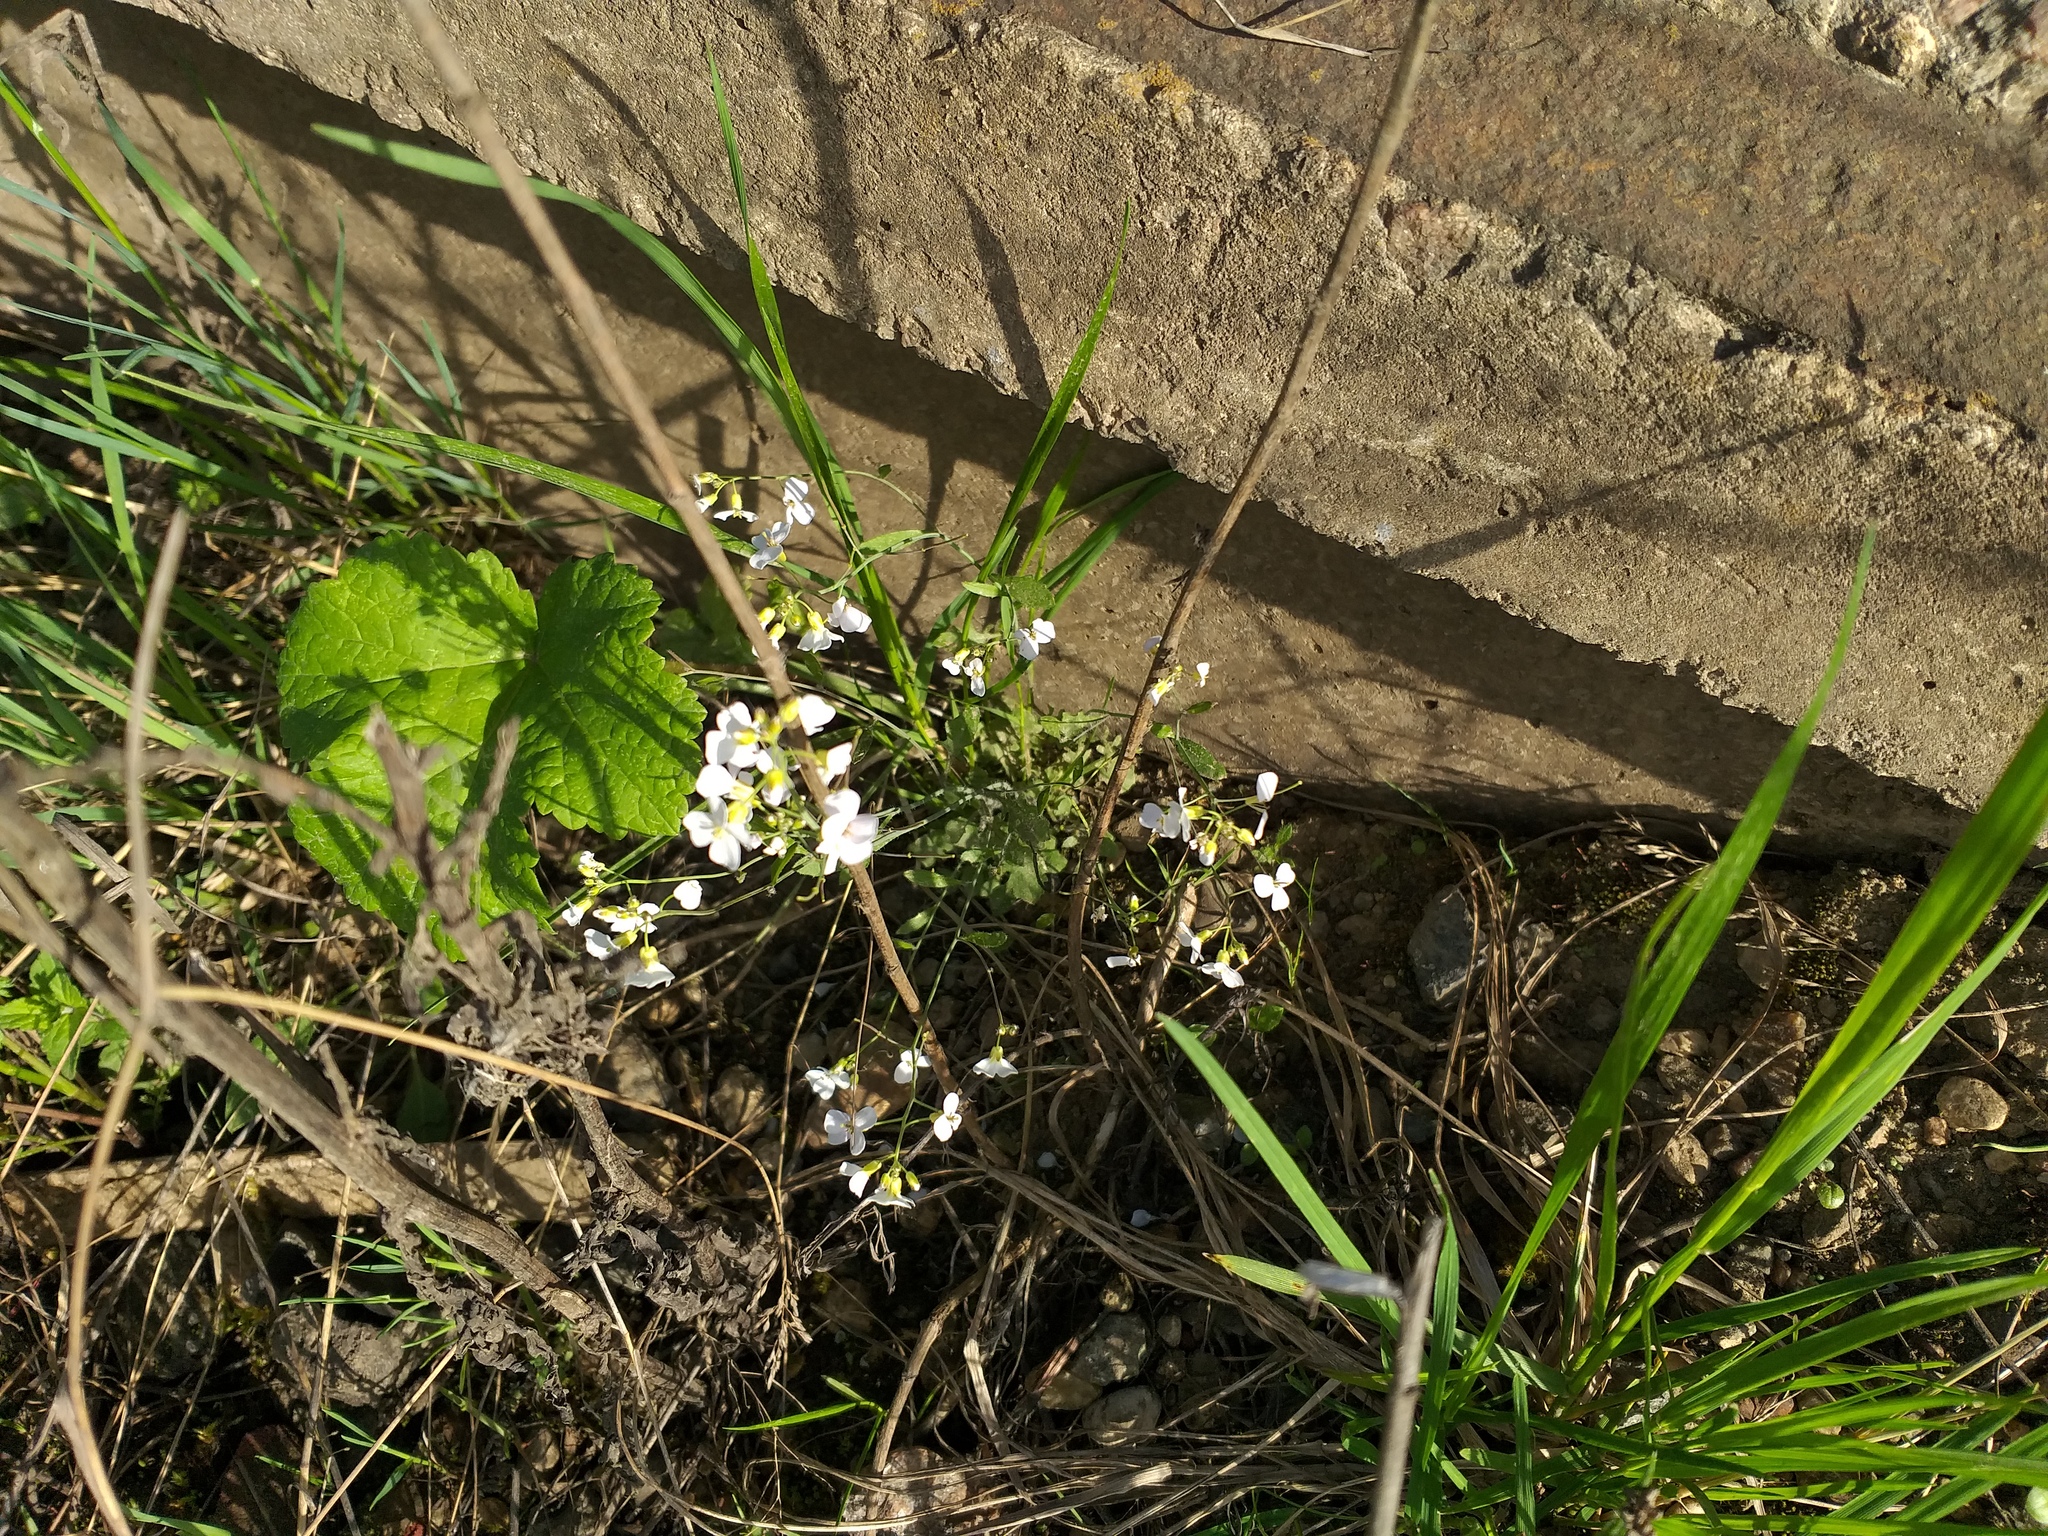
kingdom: Plantae
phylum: Tracheophyta
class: Magnoliopsida
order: Brassicales
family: Brassicaceae
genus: Arabidopsis
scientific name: Arabidopsis arenosa
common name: Sand rock-cress
